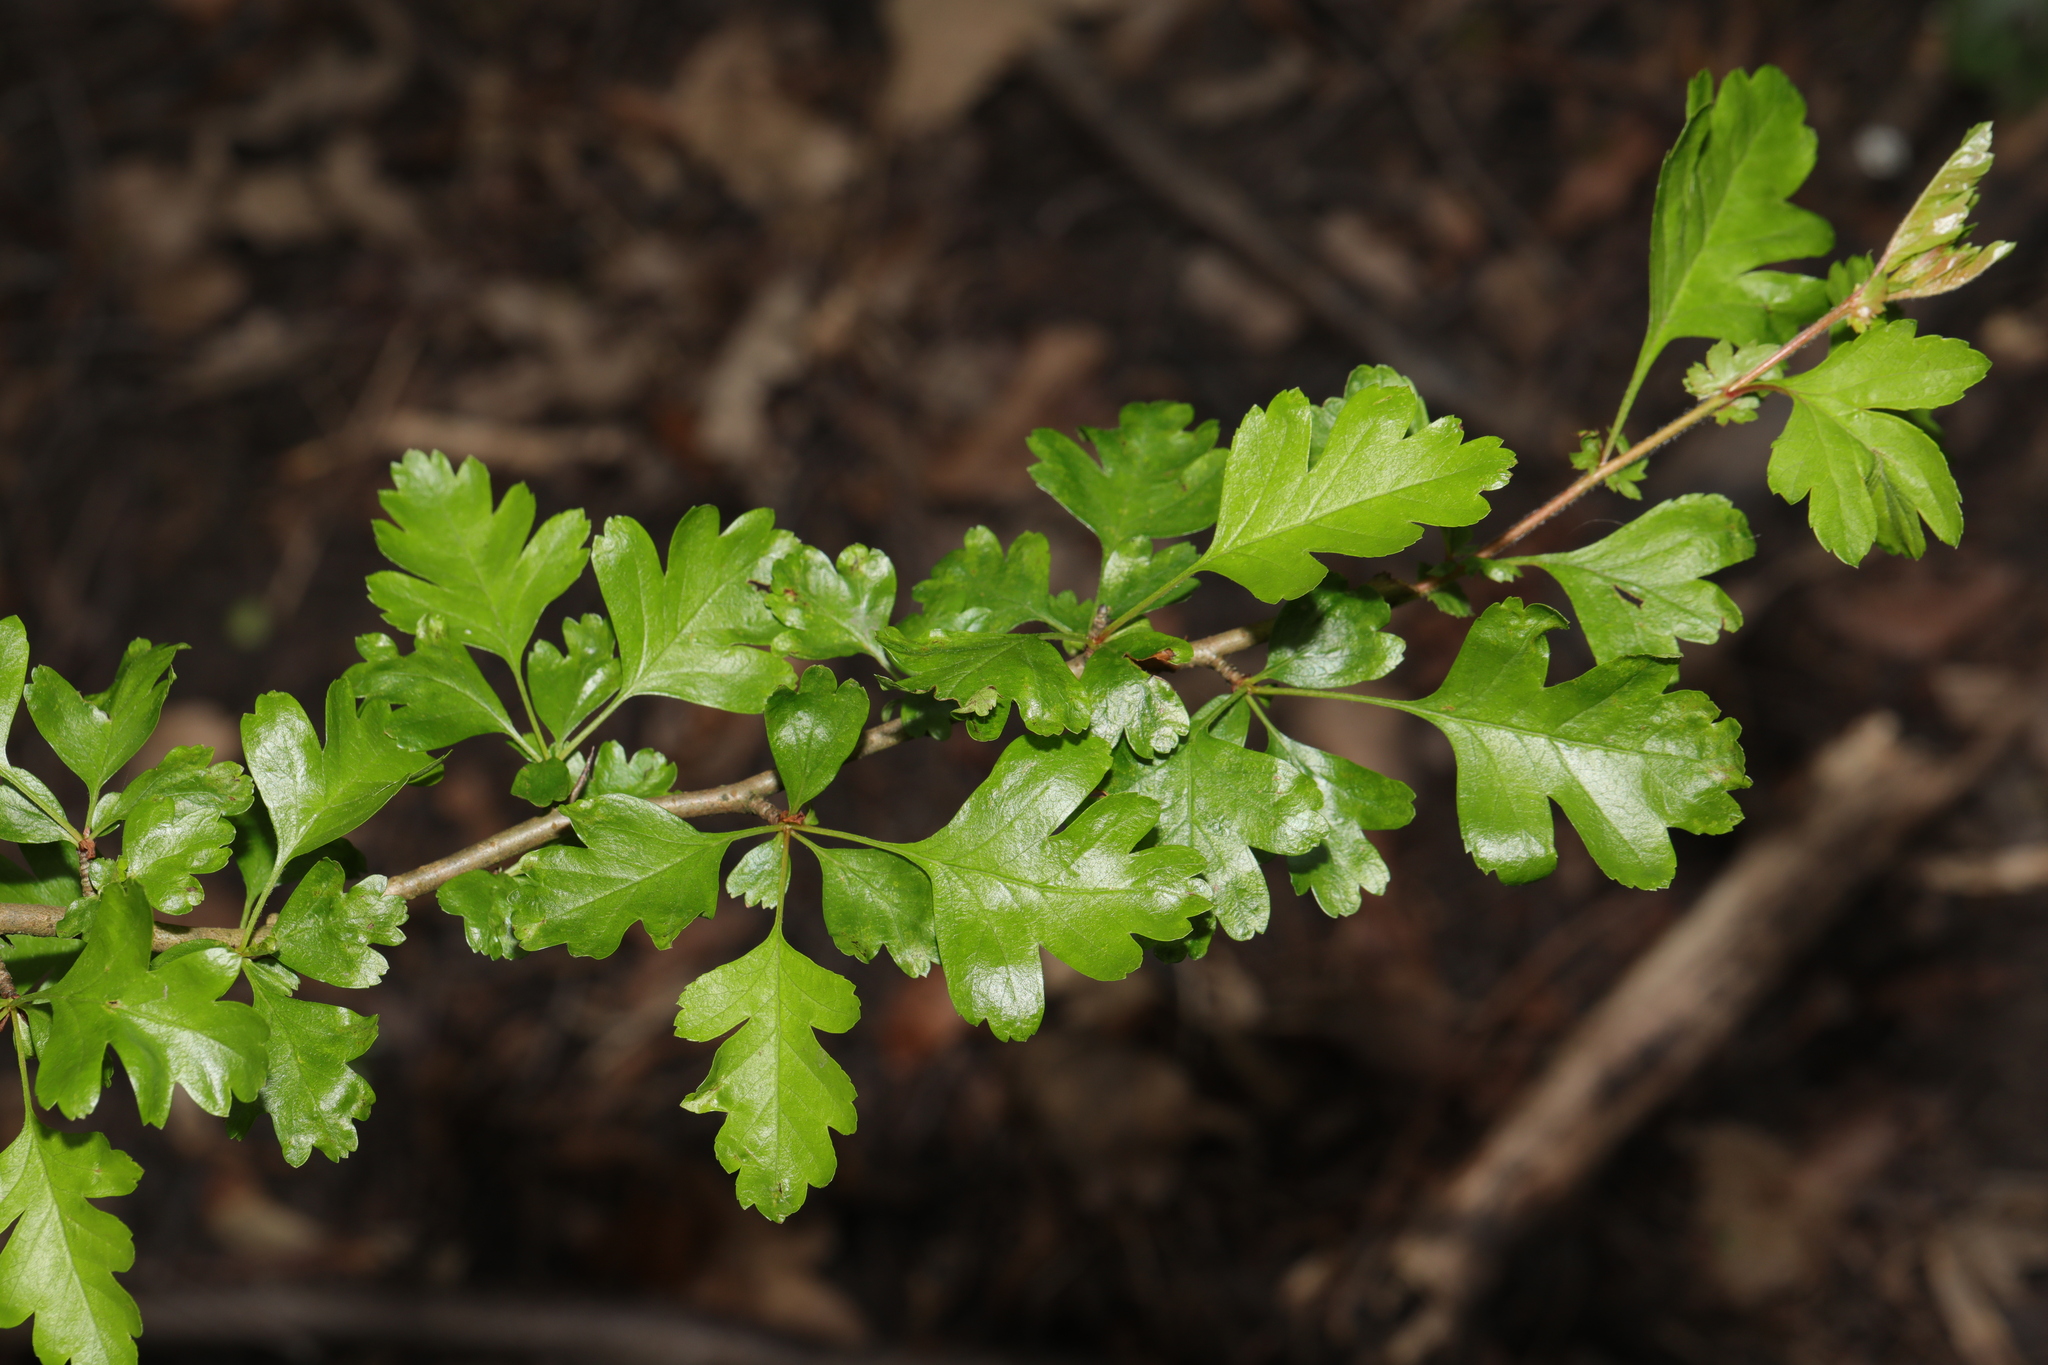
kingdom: Plantae
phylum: Tracheophyta
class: Magnoliopsida
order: Rosales
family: Rosaceae
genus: Crataegus
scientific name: Crataegus monogyna
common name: Hawthorn
